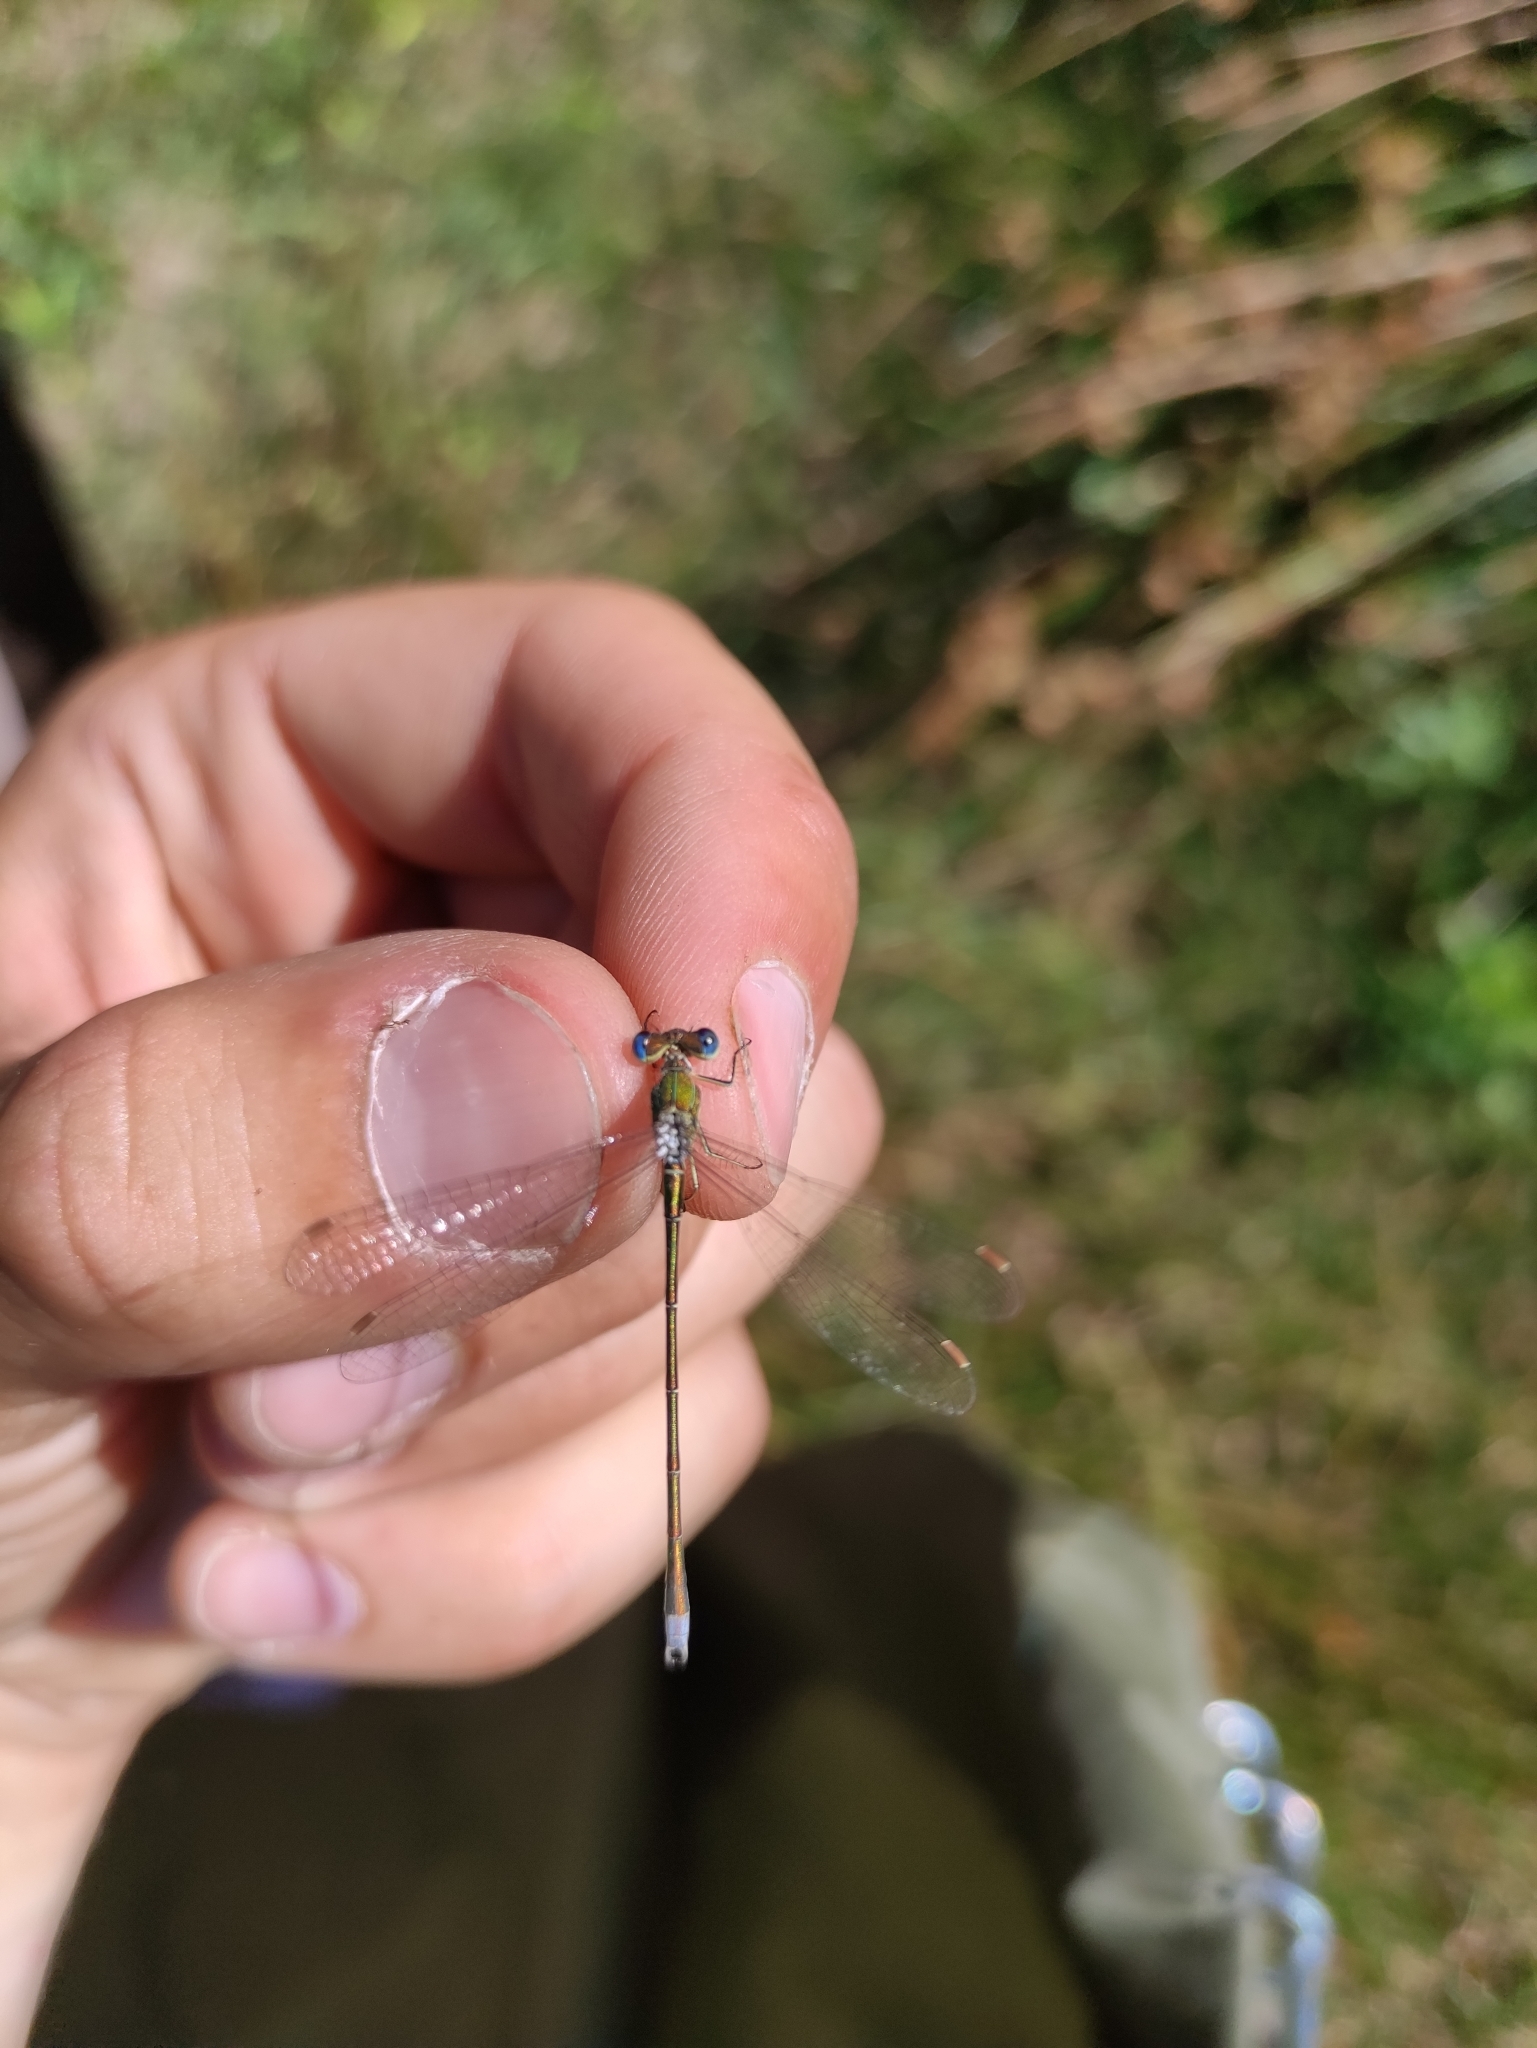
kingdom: Animalia
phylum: Arthropoda
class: Insecta
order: Odonata
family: Lestidae
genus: Lestes
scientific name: Lestes virens
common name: Small emerald spreadwing
